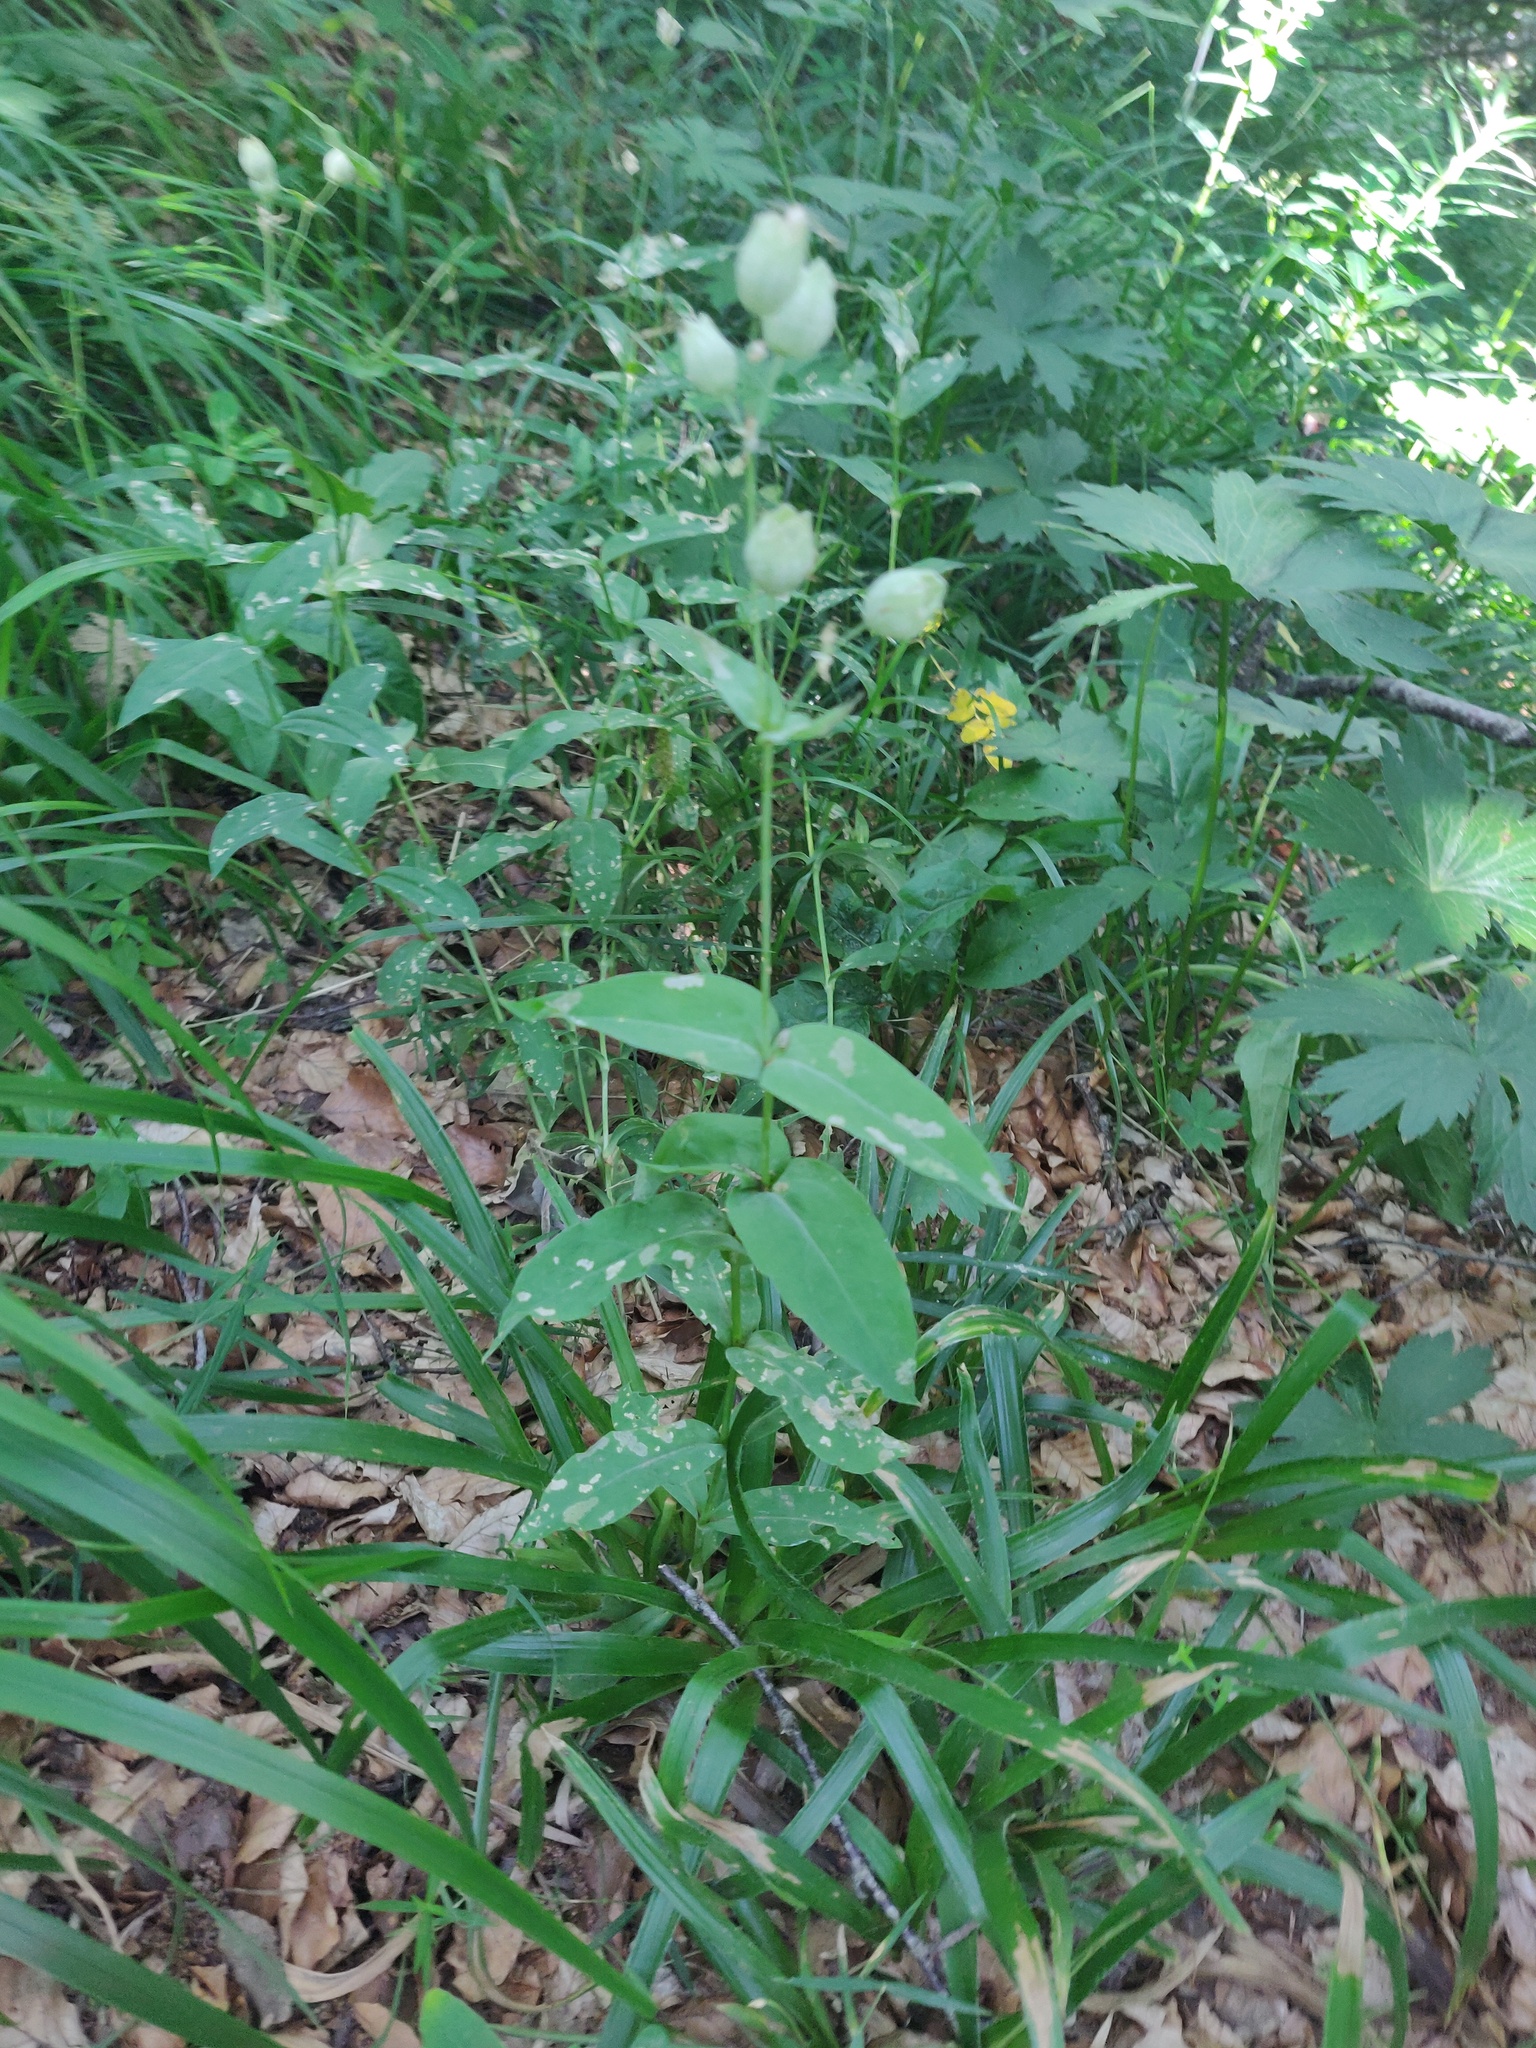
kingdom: Plantae
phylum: Tracheophyta
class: Magnoliopsida
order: Caryophyllales
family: Caryophyllaceae
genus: Silene
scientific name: Silene vulgaris
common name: Bladder campion
